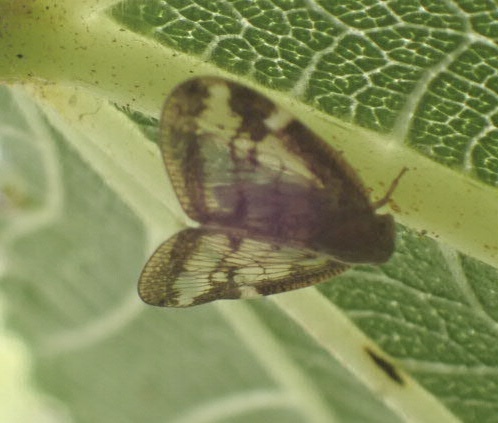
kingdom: Animalia
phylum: Arthropoda
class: Insecta
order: Hemiptera
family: Ricaniidae
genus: Scolypopa
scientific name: Scolypopa australis
